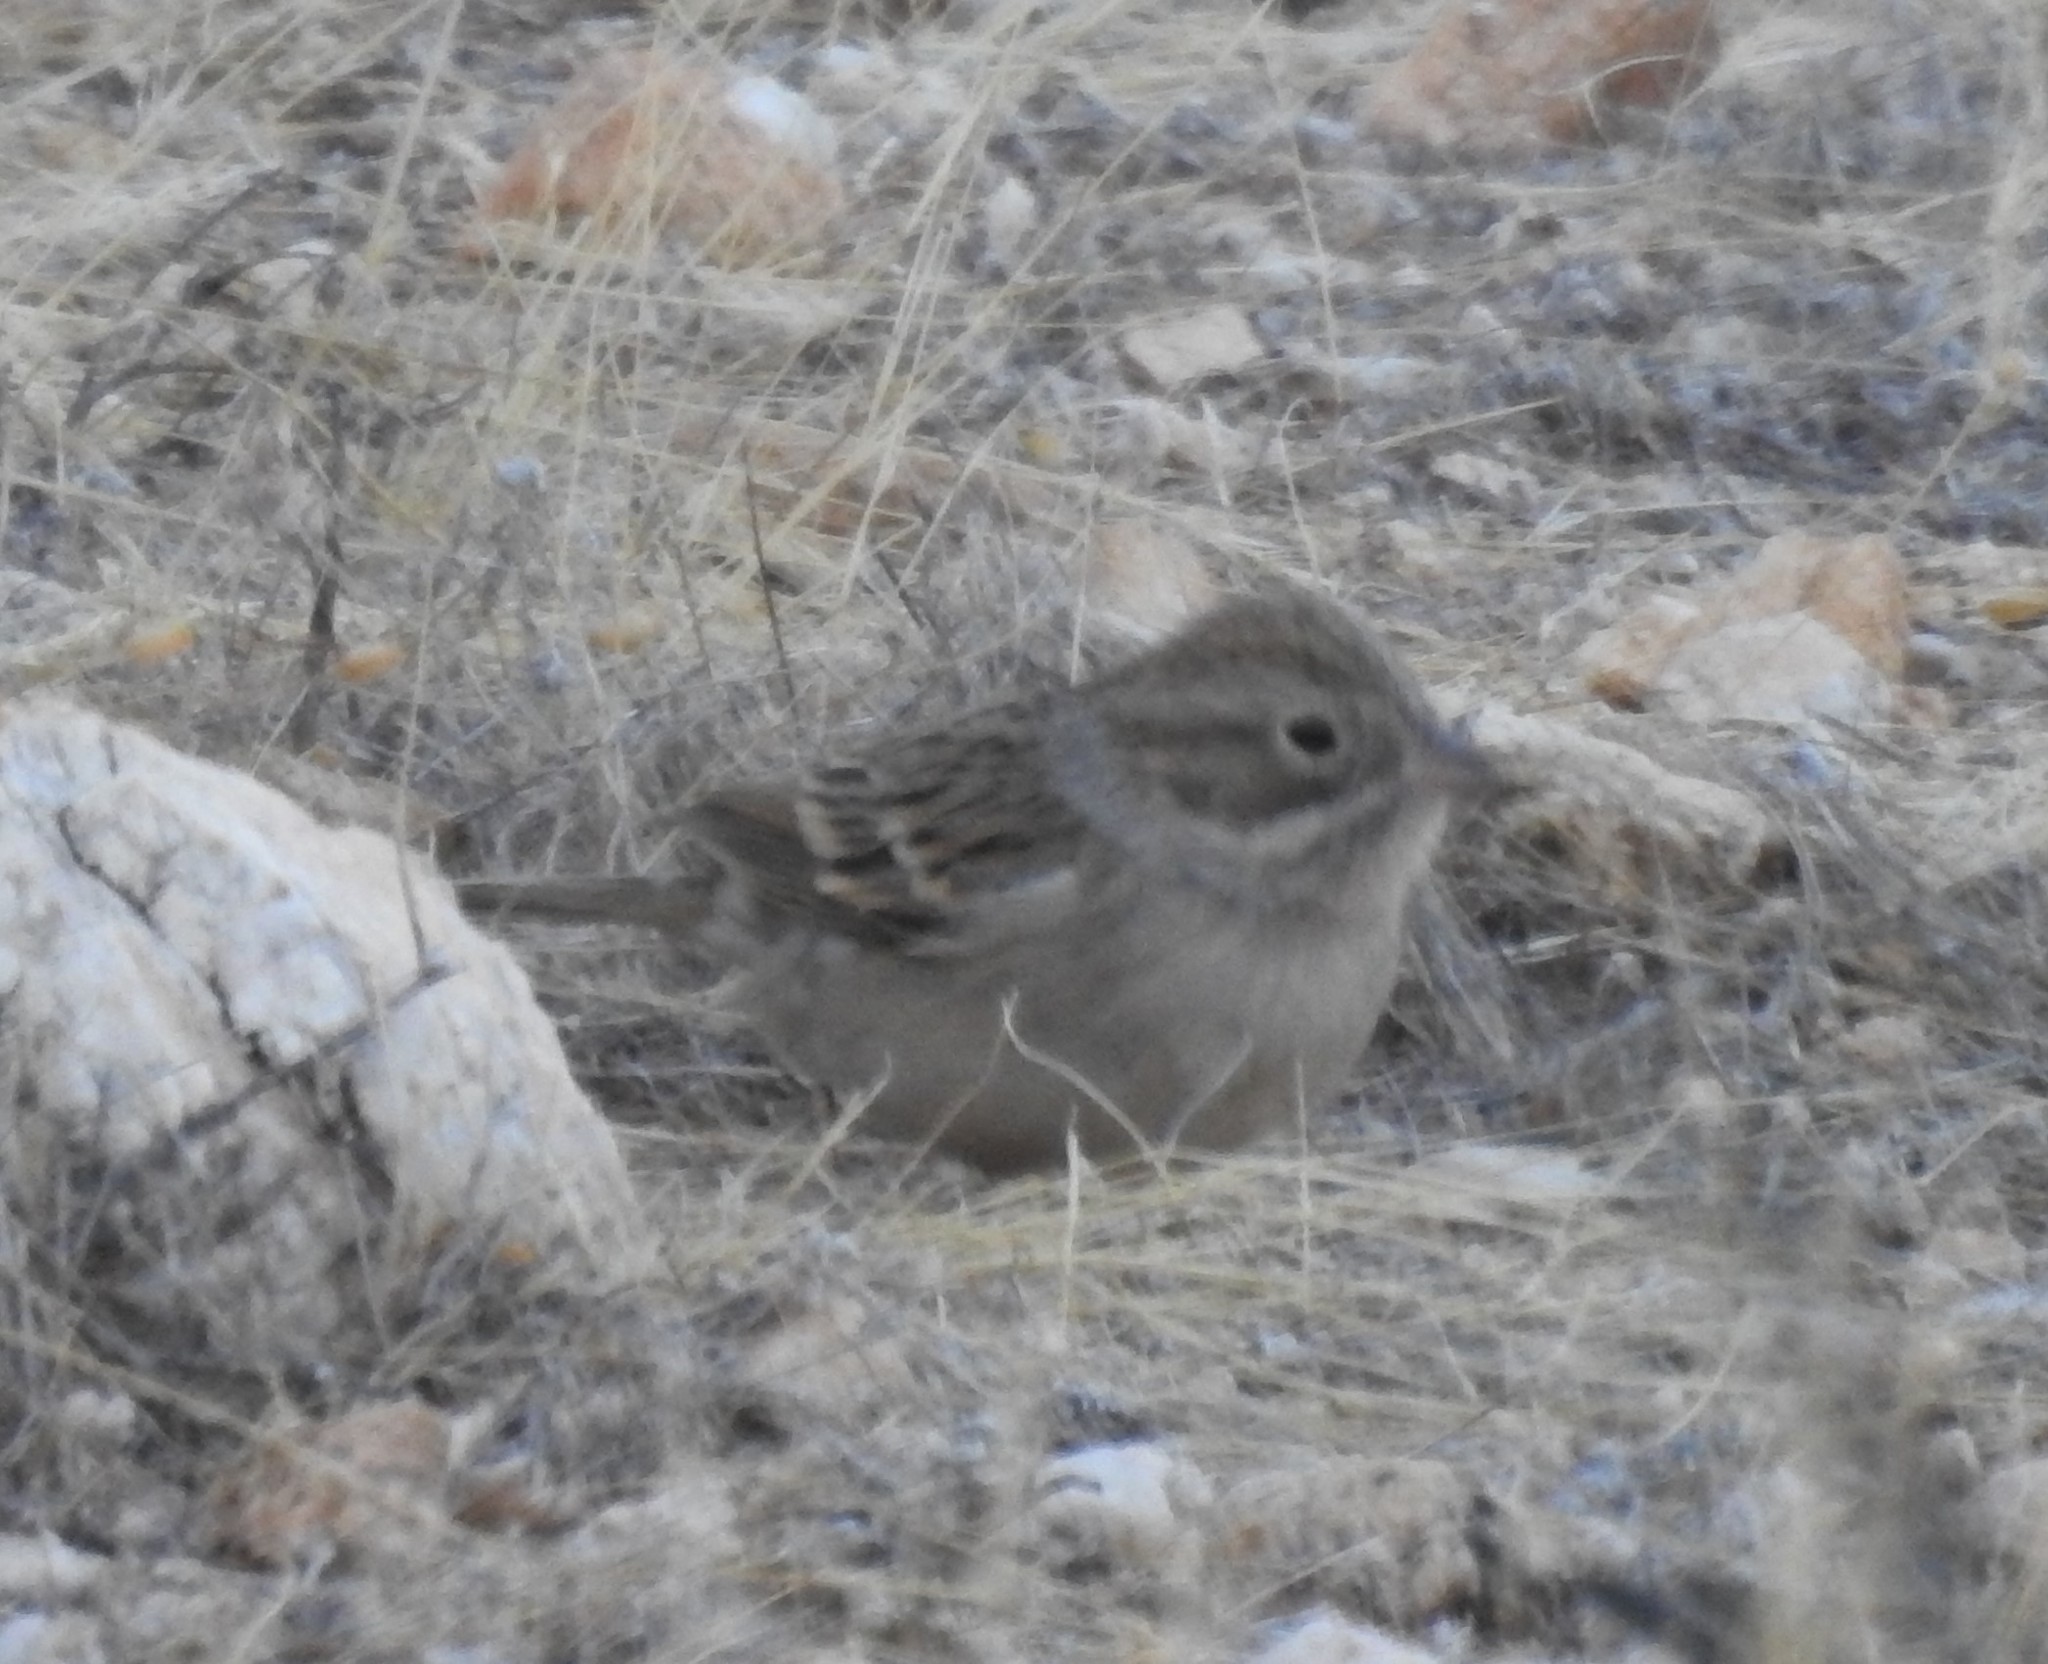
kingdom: Animalia
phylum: Chordata
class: Aves
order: Passeriformes
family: Passerellidae
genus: Spizella
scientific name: Spizella breweri
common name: Brewer's sparrow
